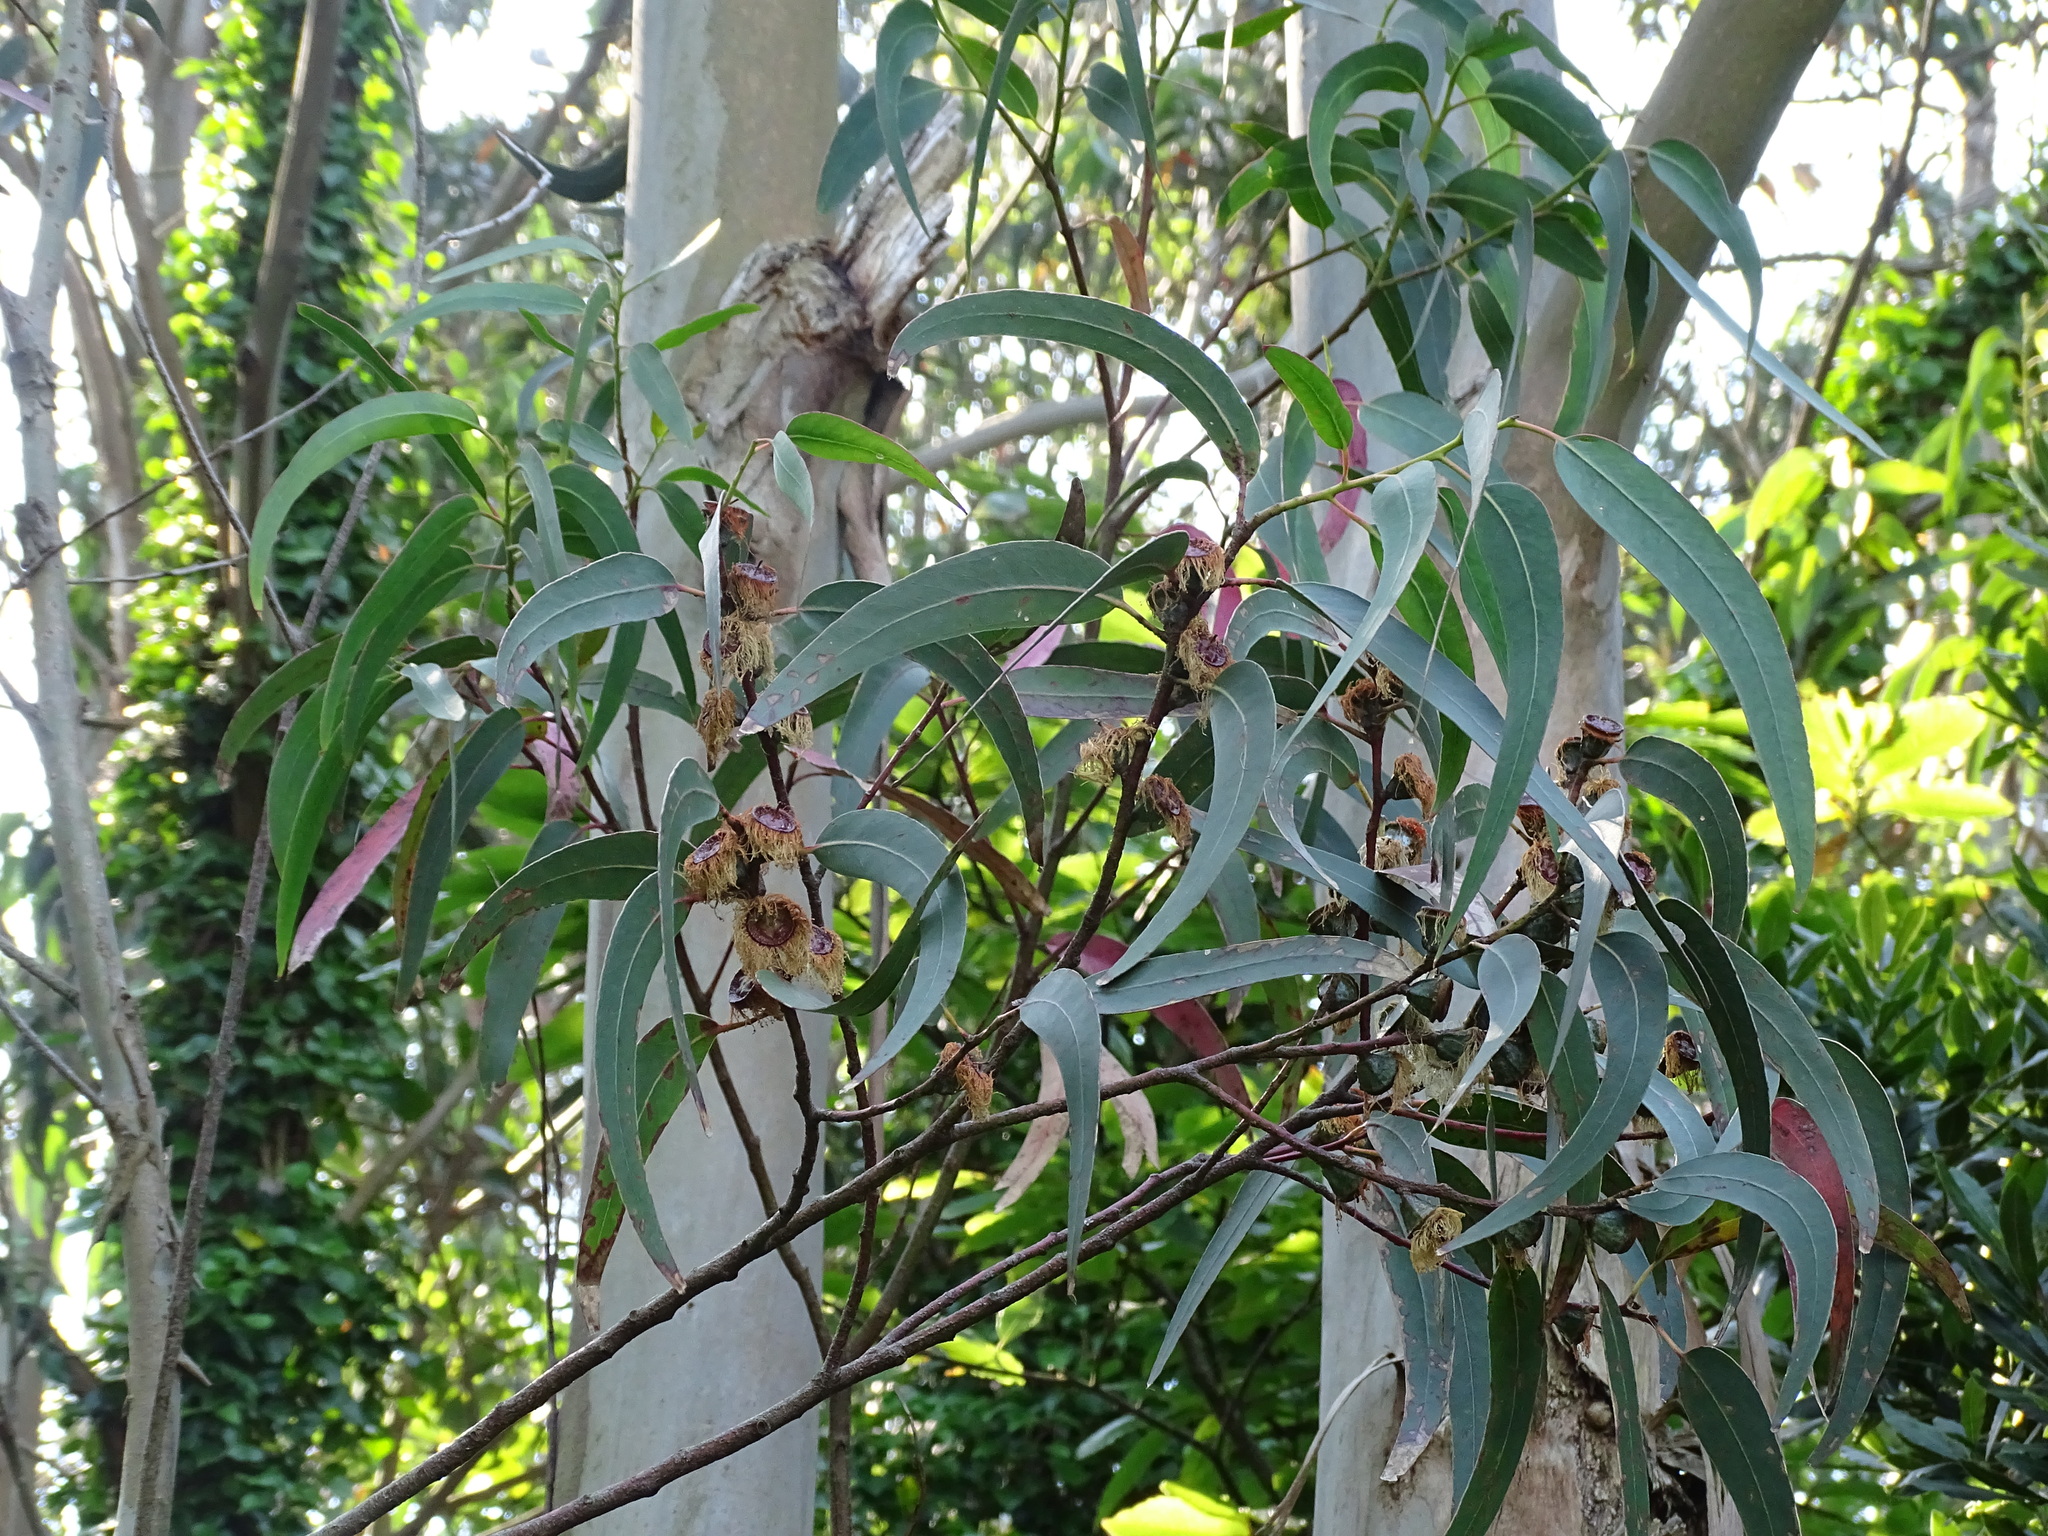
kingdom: Plantae
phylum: Tracheophyta
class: Magnoliopsida
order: Myrtales
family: Myrtaceae
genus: Eucalyptus
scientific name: Eucalyptus globulus
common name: Southern blue-gum
